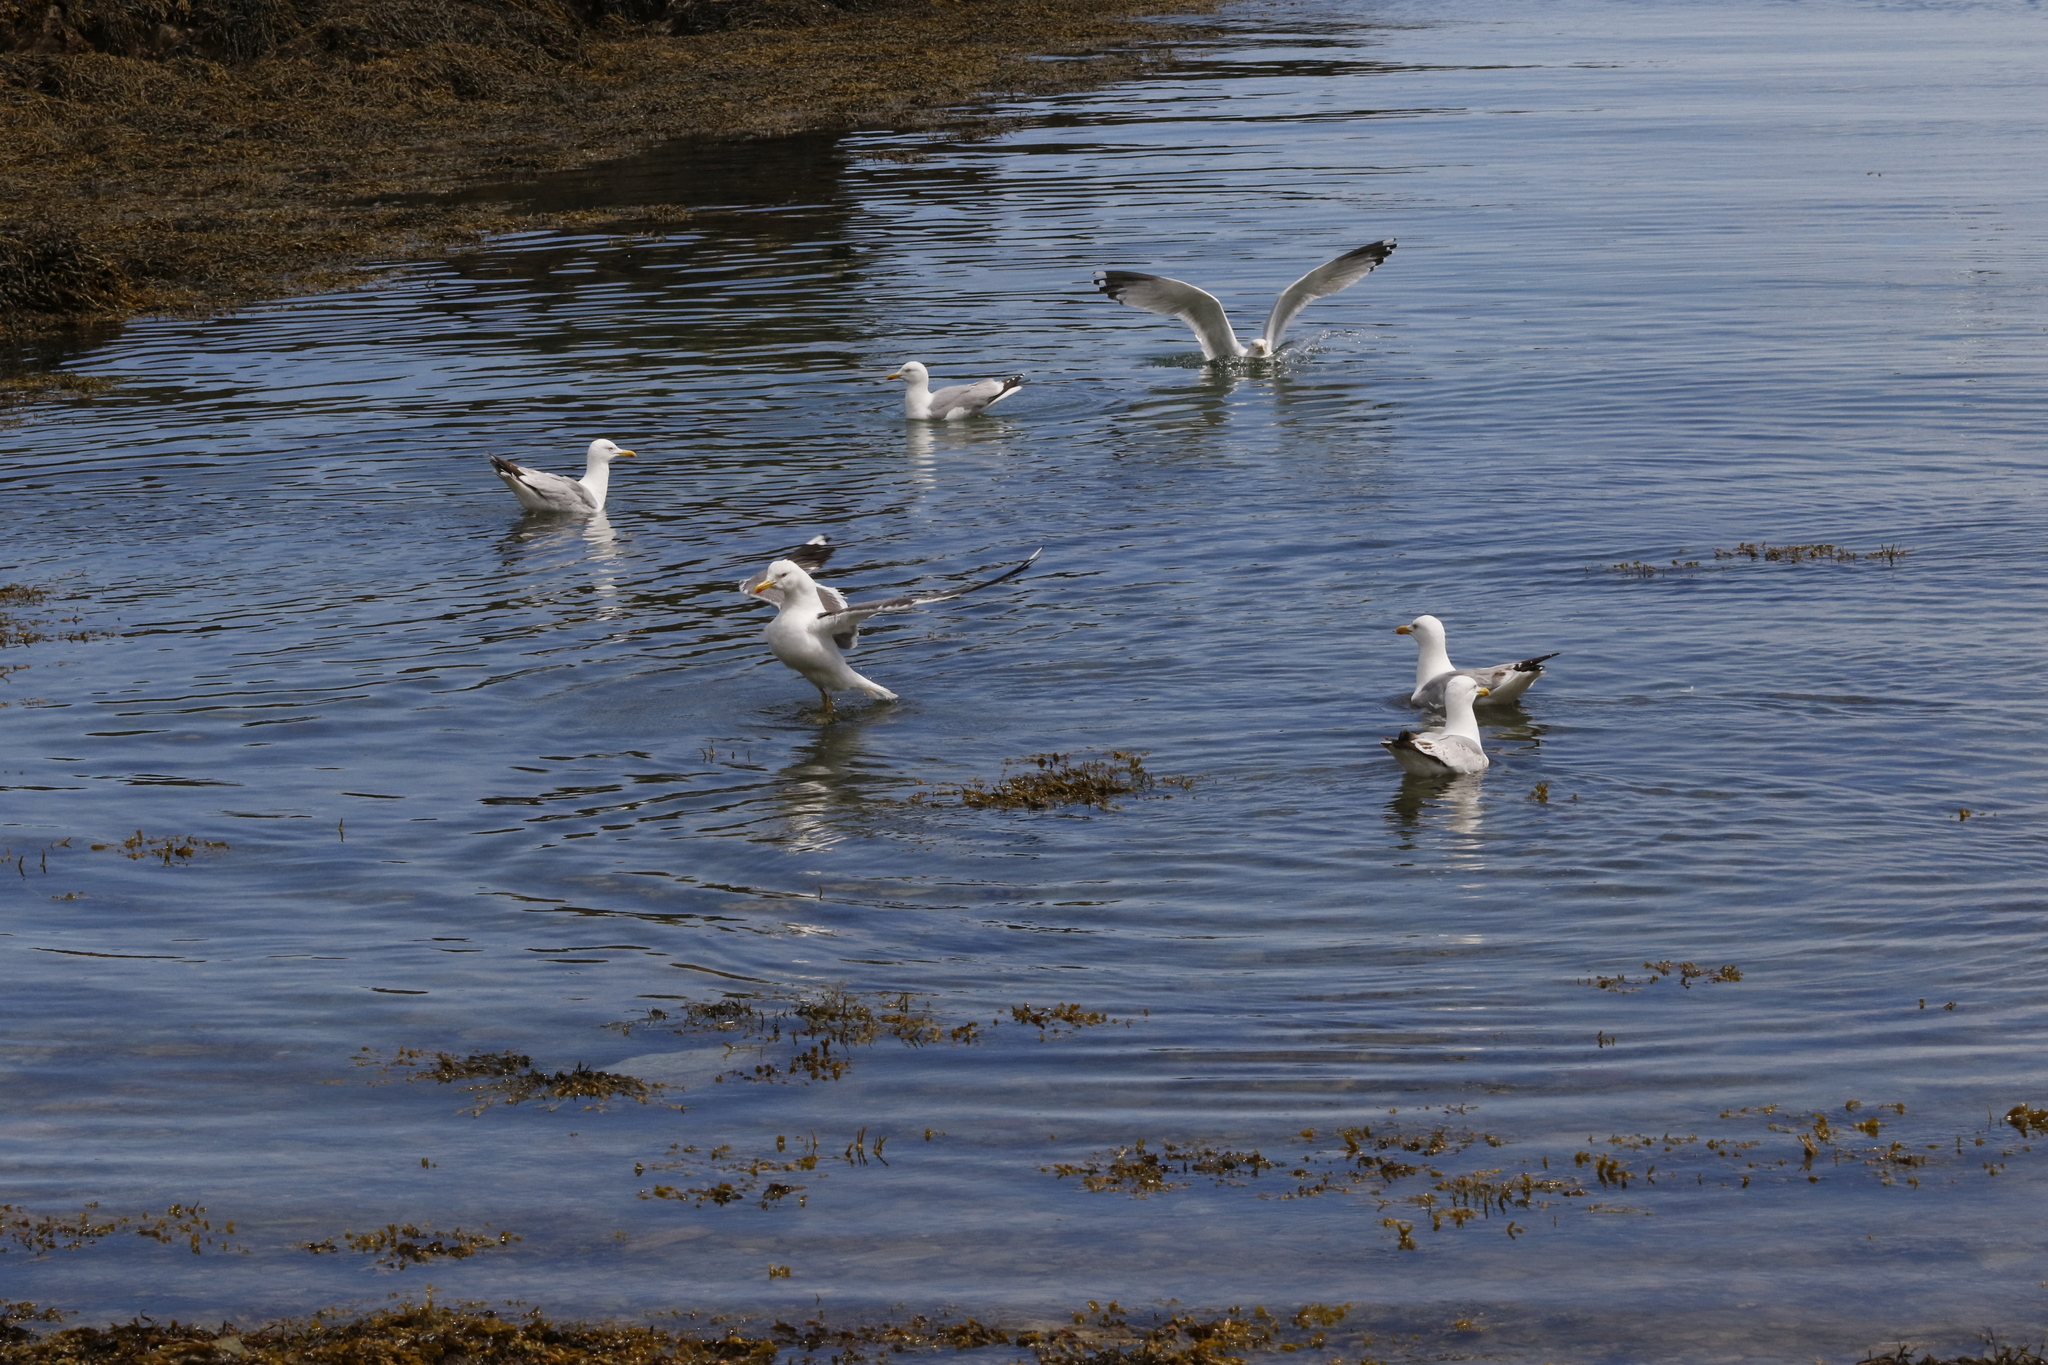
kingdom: Animalia
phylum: Chordata
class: Aves
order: Charadriiformes
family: Laridae
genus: Larus
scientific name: Larus argentatus
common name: Herring gull
